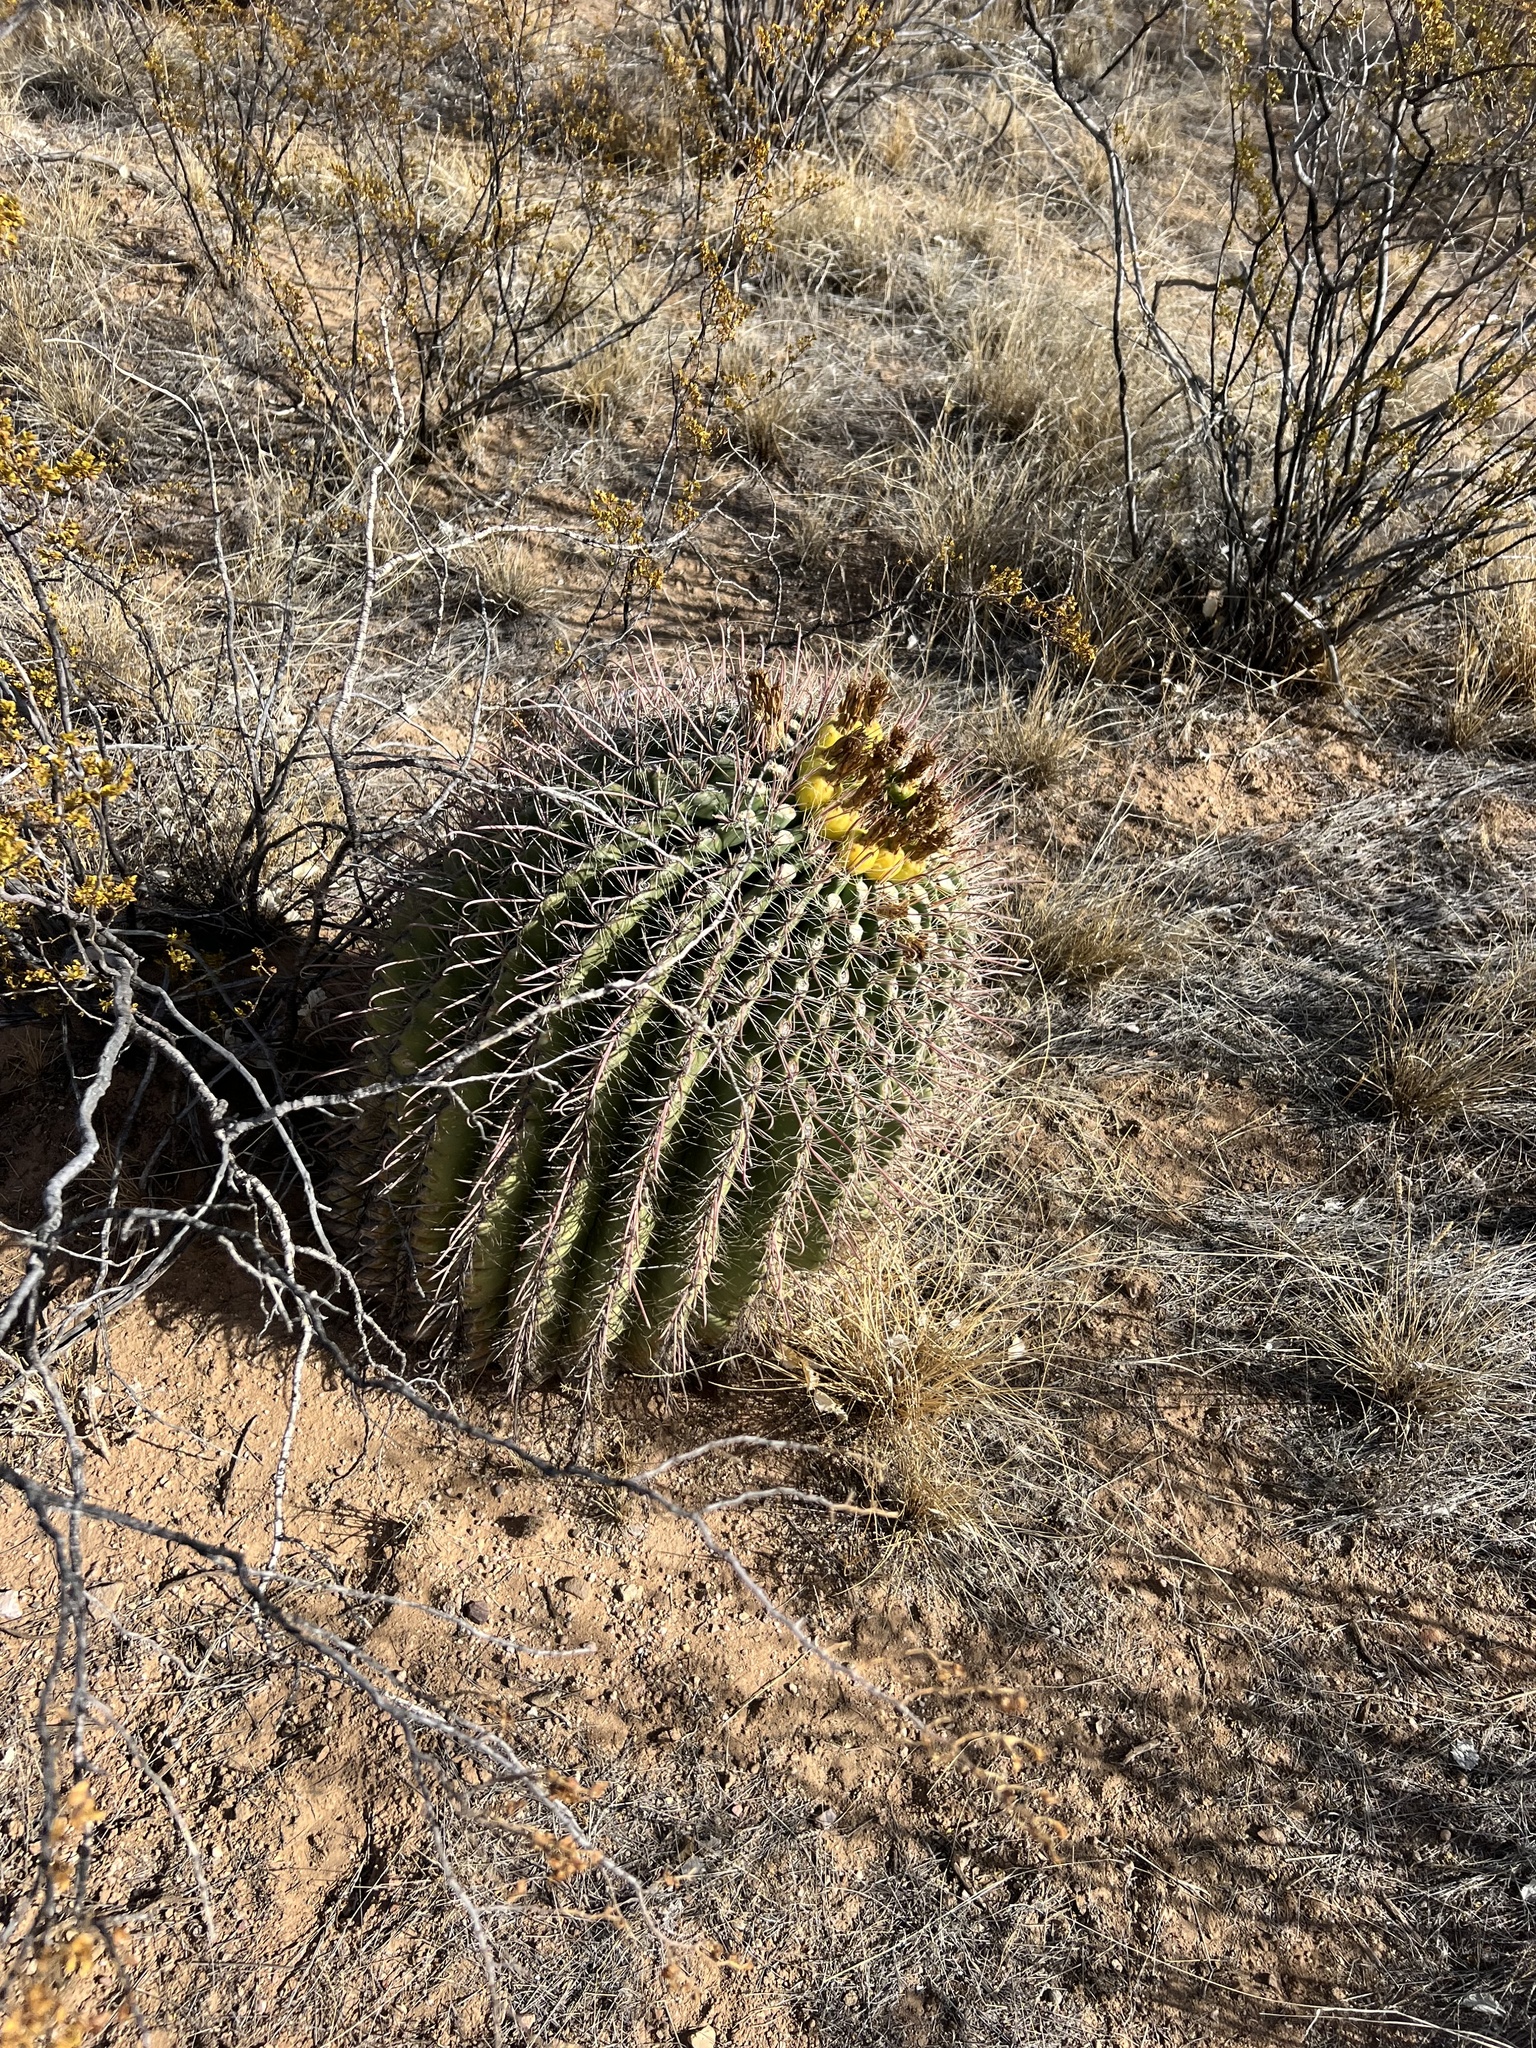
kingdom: Plantae
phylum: Tracheophyta
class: Magnoliopsida
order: Caryophyllales
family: Cactaceae
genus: Ferocactus
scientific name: Ferocactus wislizeni
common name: Candy barrel cactus
